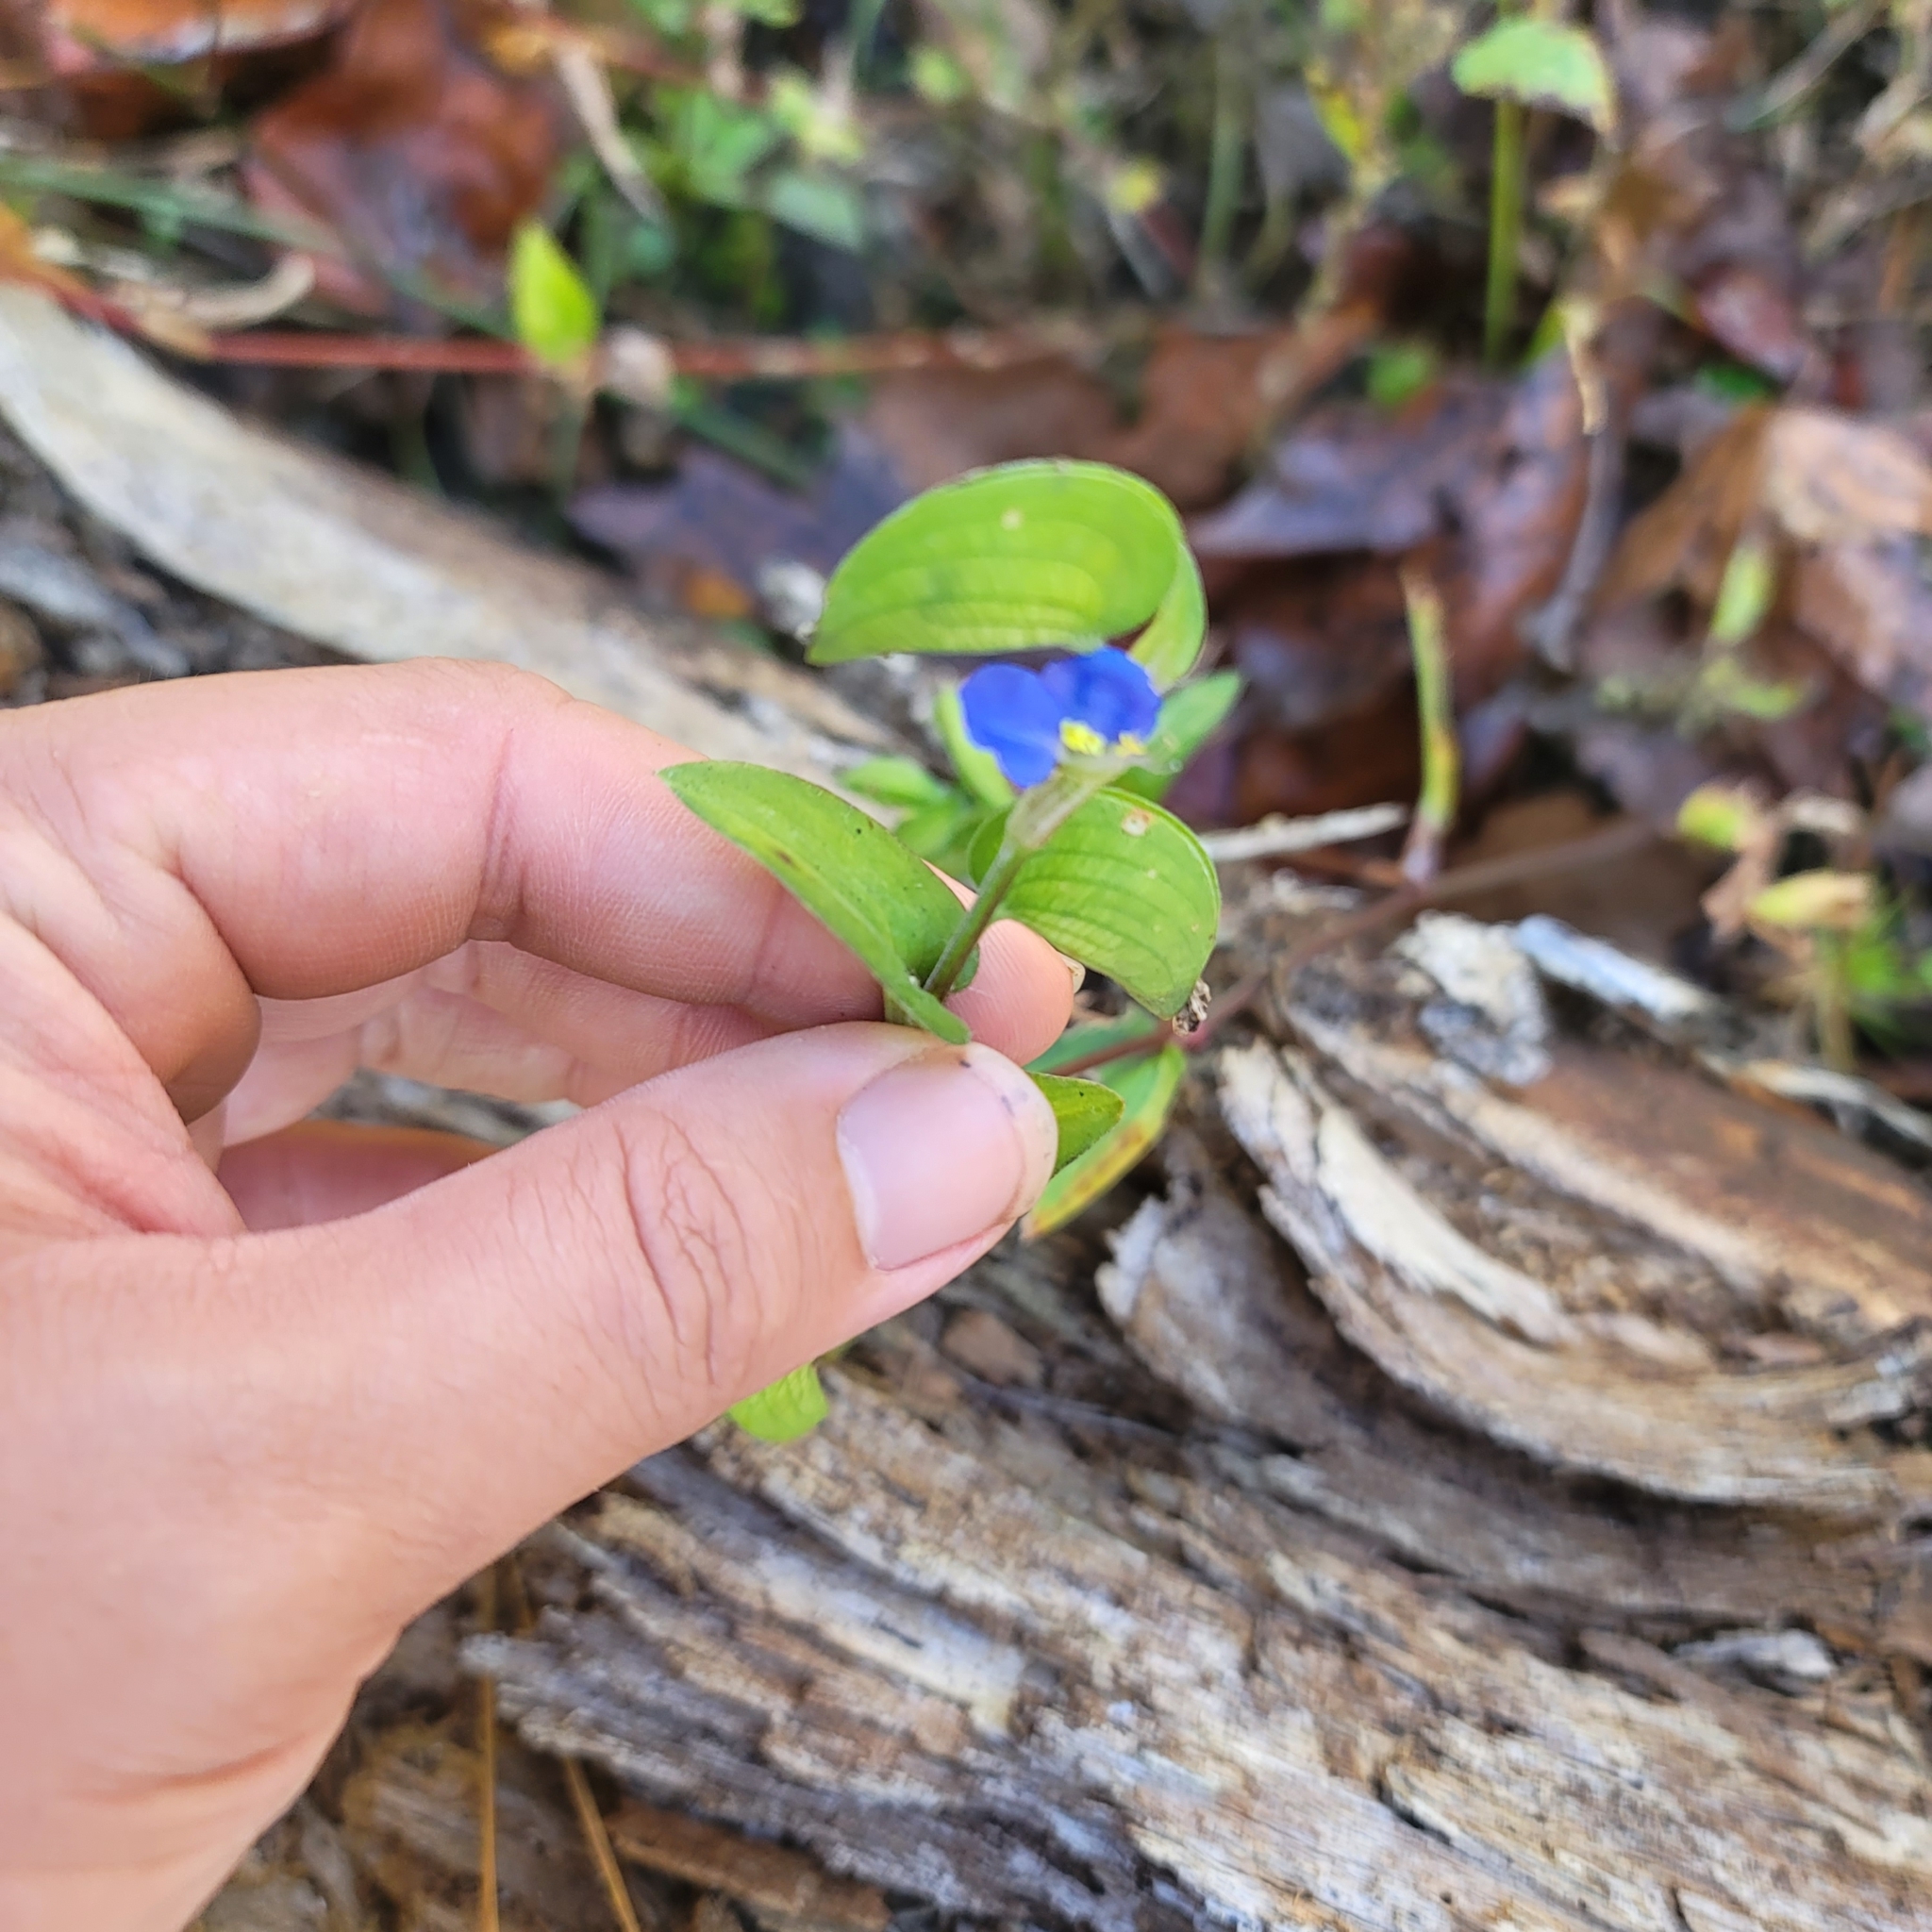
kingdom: Plantae
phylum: Tracheophyta
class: Liliopsida
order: Commelinales
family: Commelinaceae
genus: Commelina
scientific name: Commelina communis
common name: Asiatic dayflower
